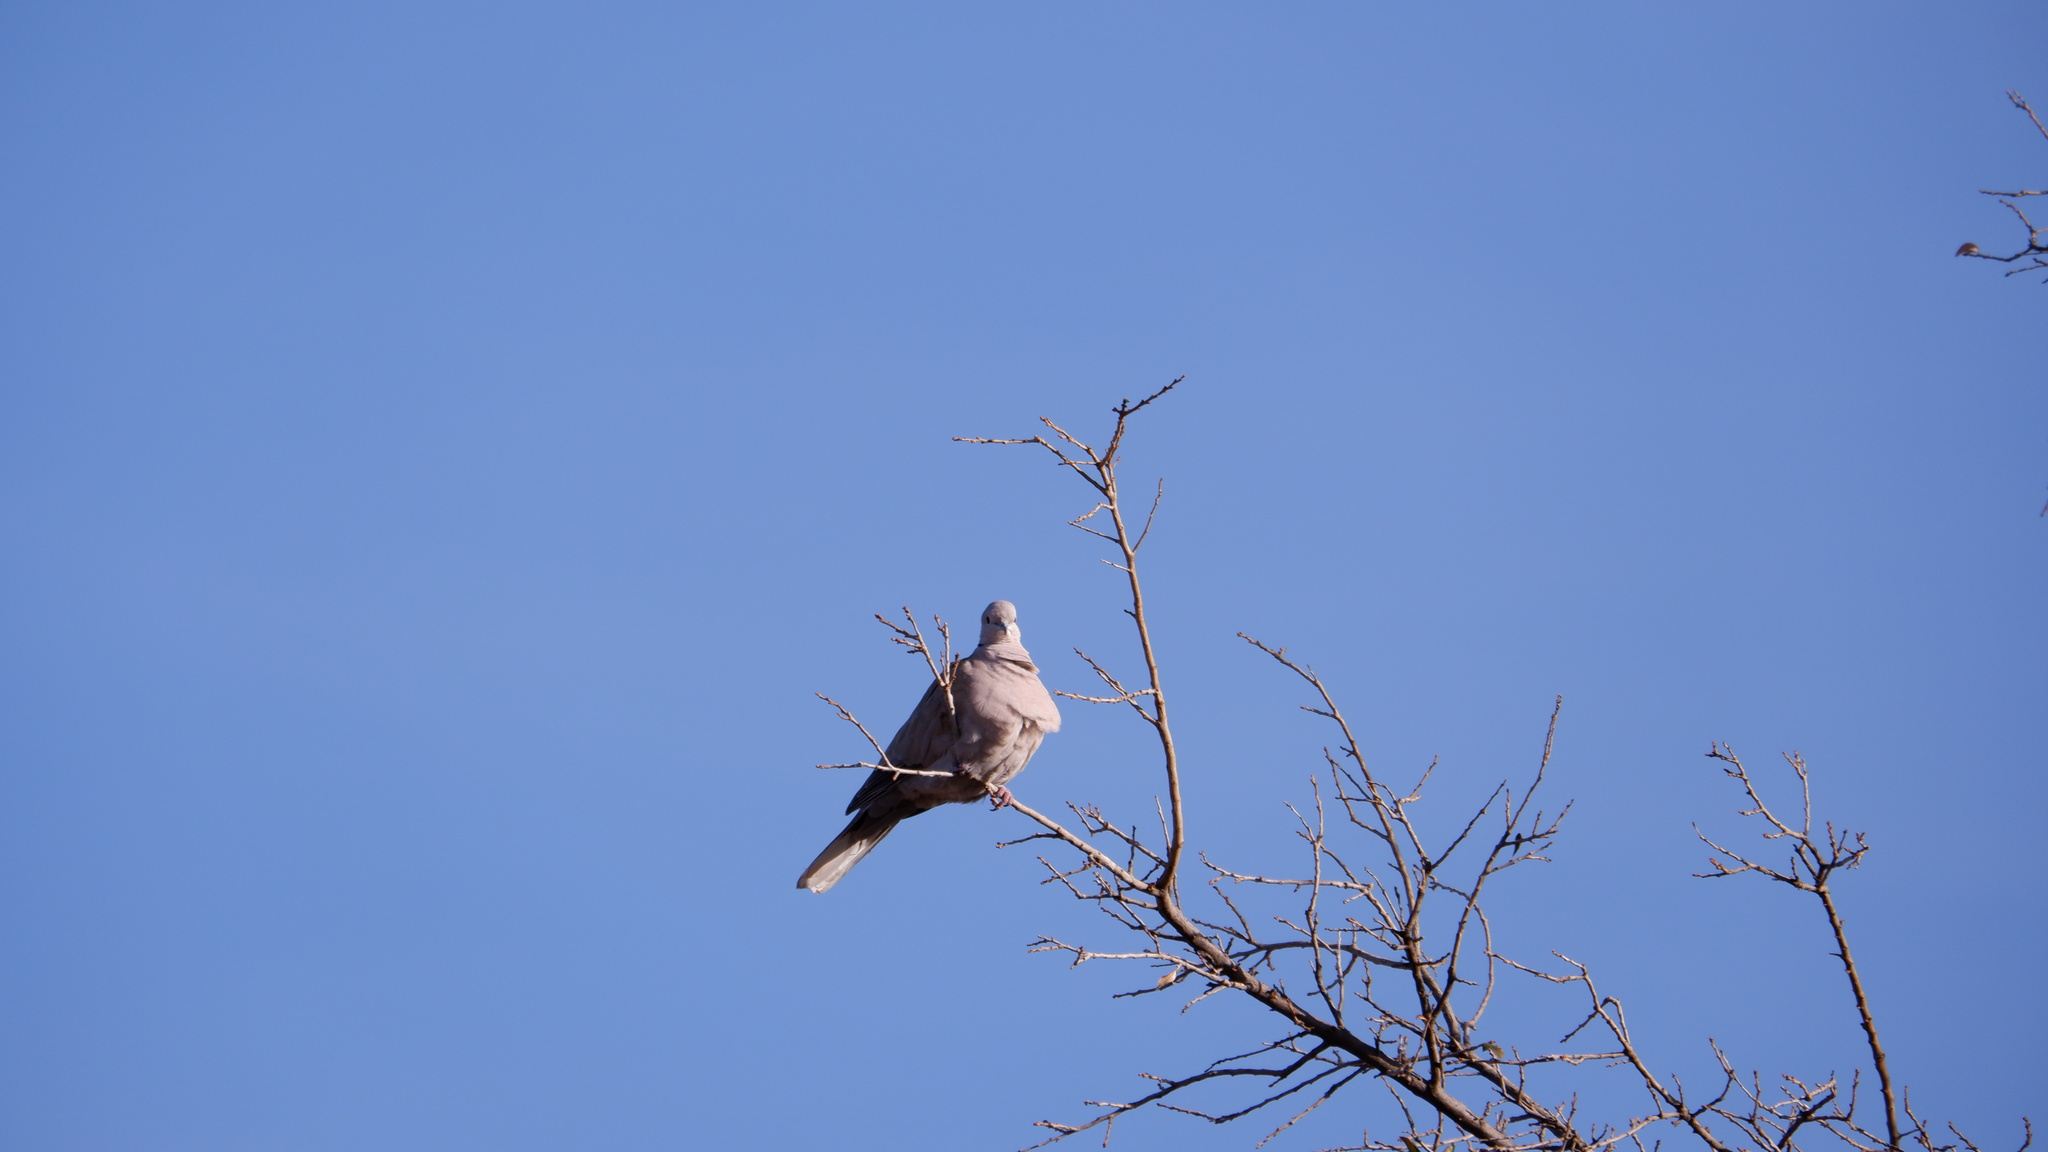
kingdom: Animalia
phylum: Chordata
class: Aves
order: Columbiformes
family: Columbidae
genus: Streptopelia
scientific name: Streptopelia decaocto
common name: Eurasian collared dove
